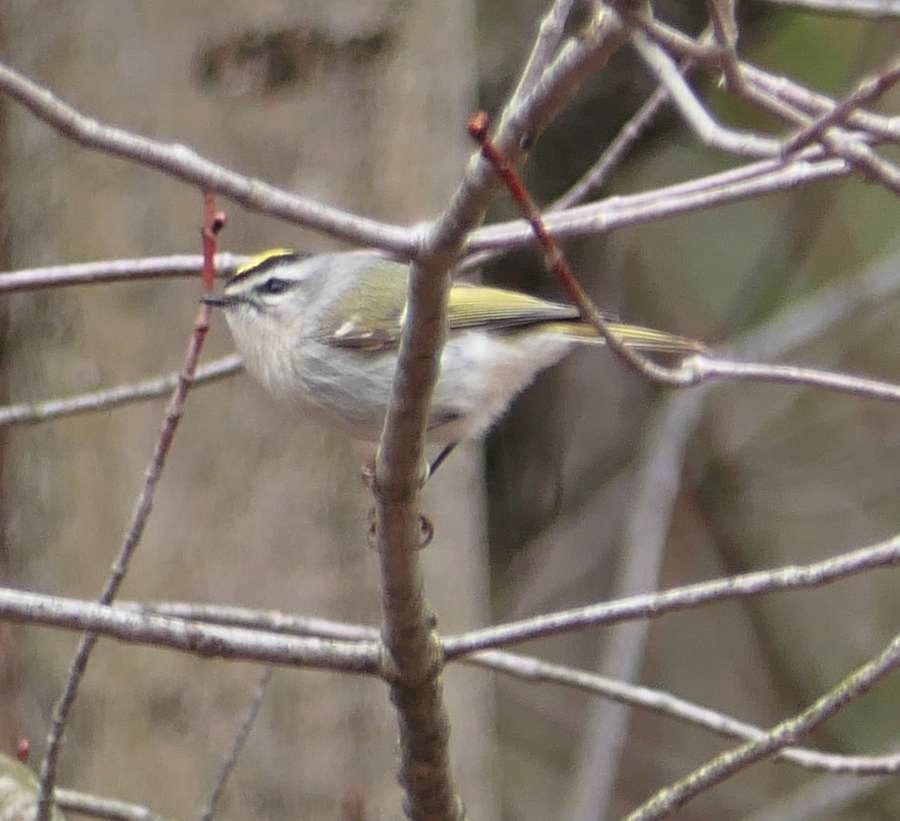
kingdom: Animalia
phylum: Chordata
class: Aves
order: Passeriformes
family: Regulidae
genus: Regulus
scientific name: Regulus satrapa
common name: Golden-crowned kinglet
